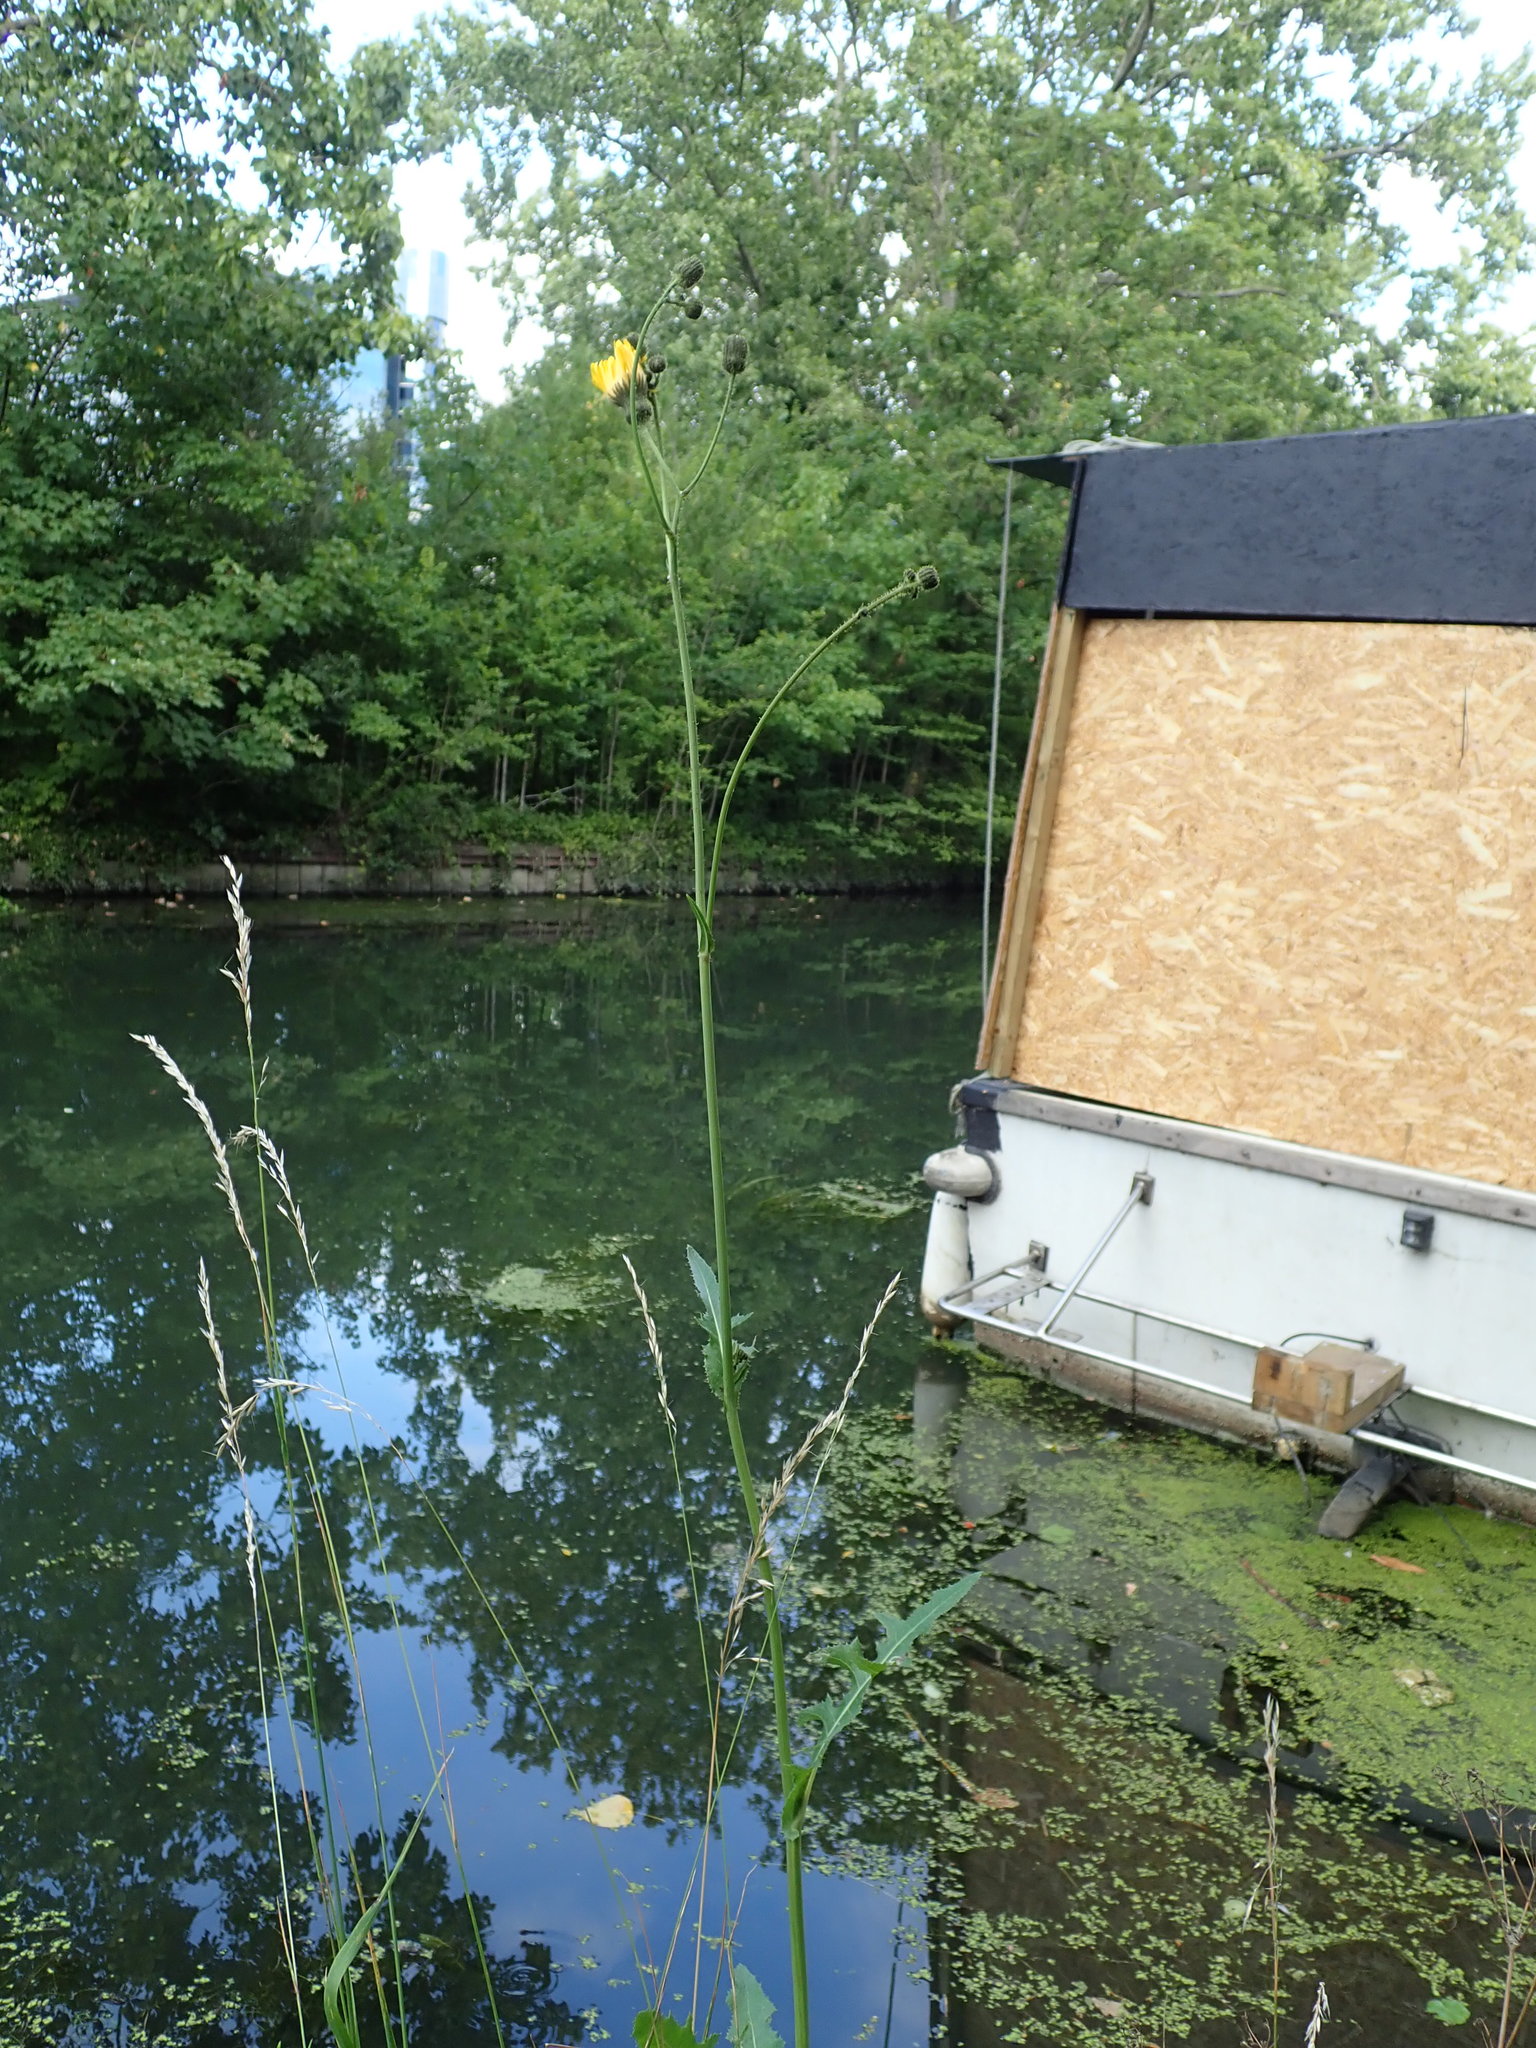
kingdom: Plantae
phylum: Tracheophyta
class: Magnoliopsida
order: Asterales
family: Asteraceae
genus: Sonchus
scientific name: Sonchus arvensis
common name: Perennial sow-thistle
